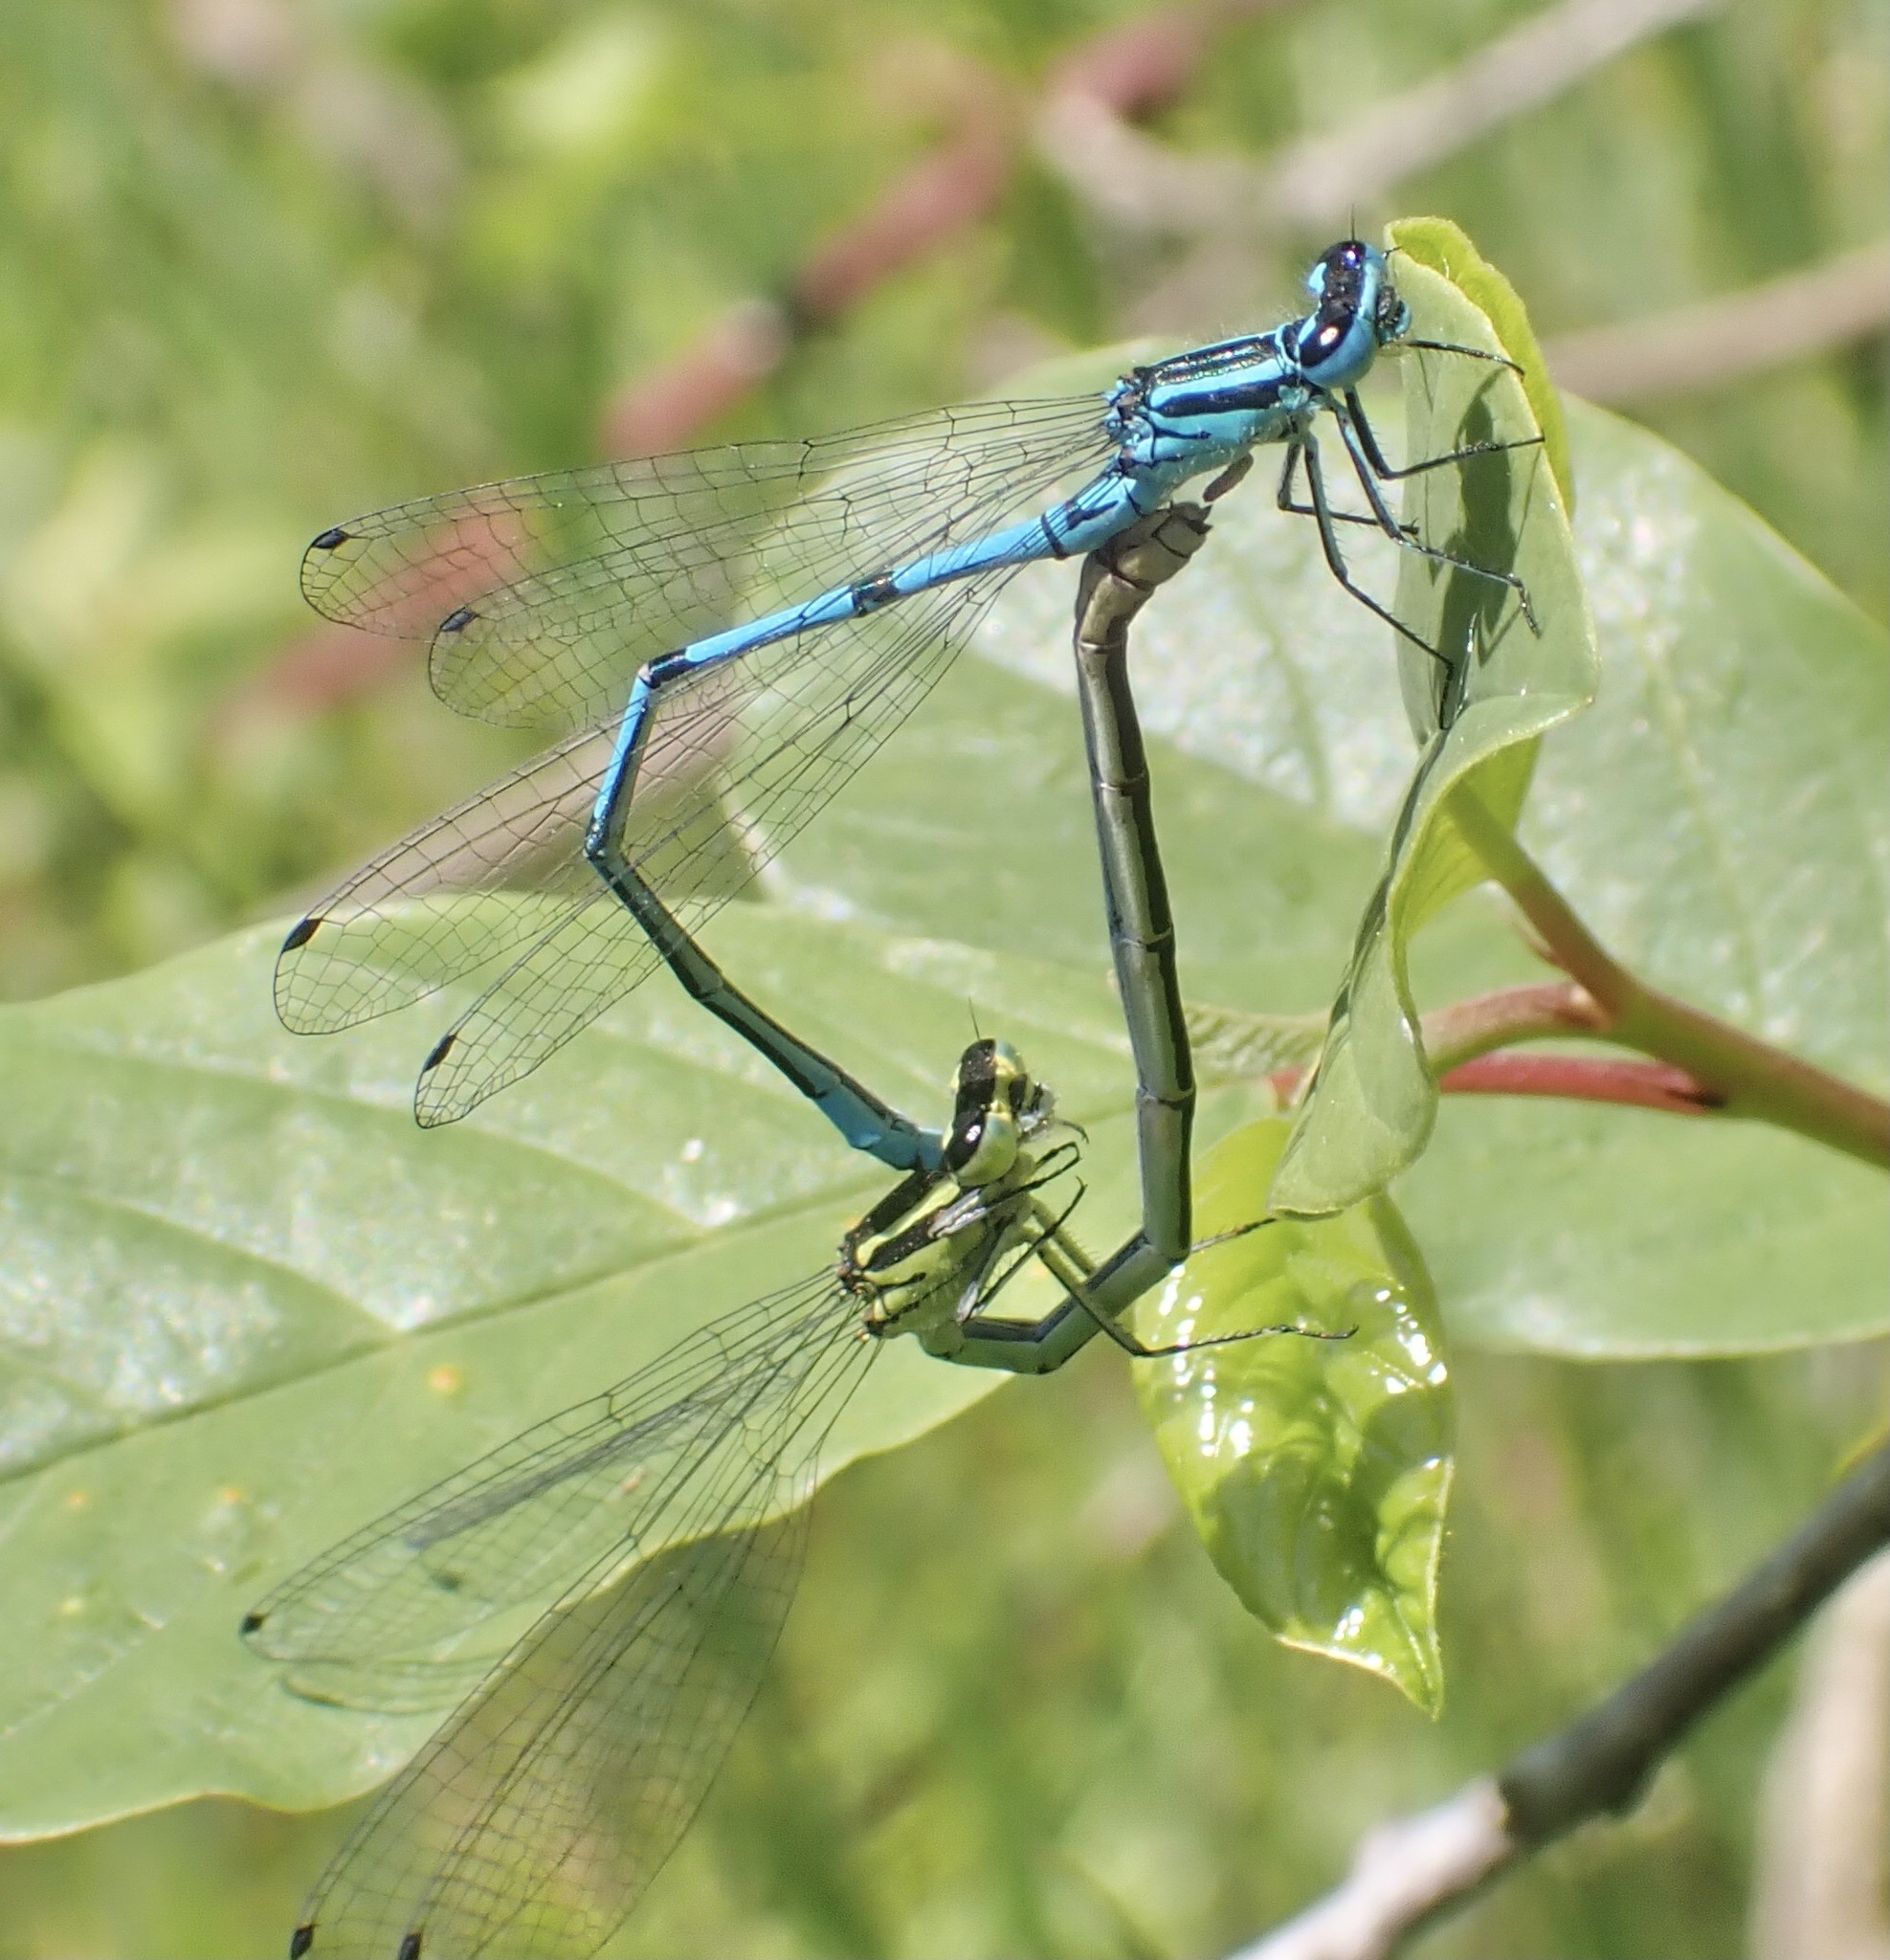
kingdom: Animalia
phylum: Arthropoda
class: Insecta
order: Odonata
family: Coenagrionidae
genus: Coenagrion
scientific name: Coenagrion puella
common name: Azure damselfly
